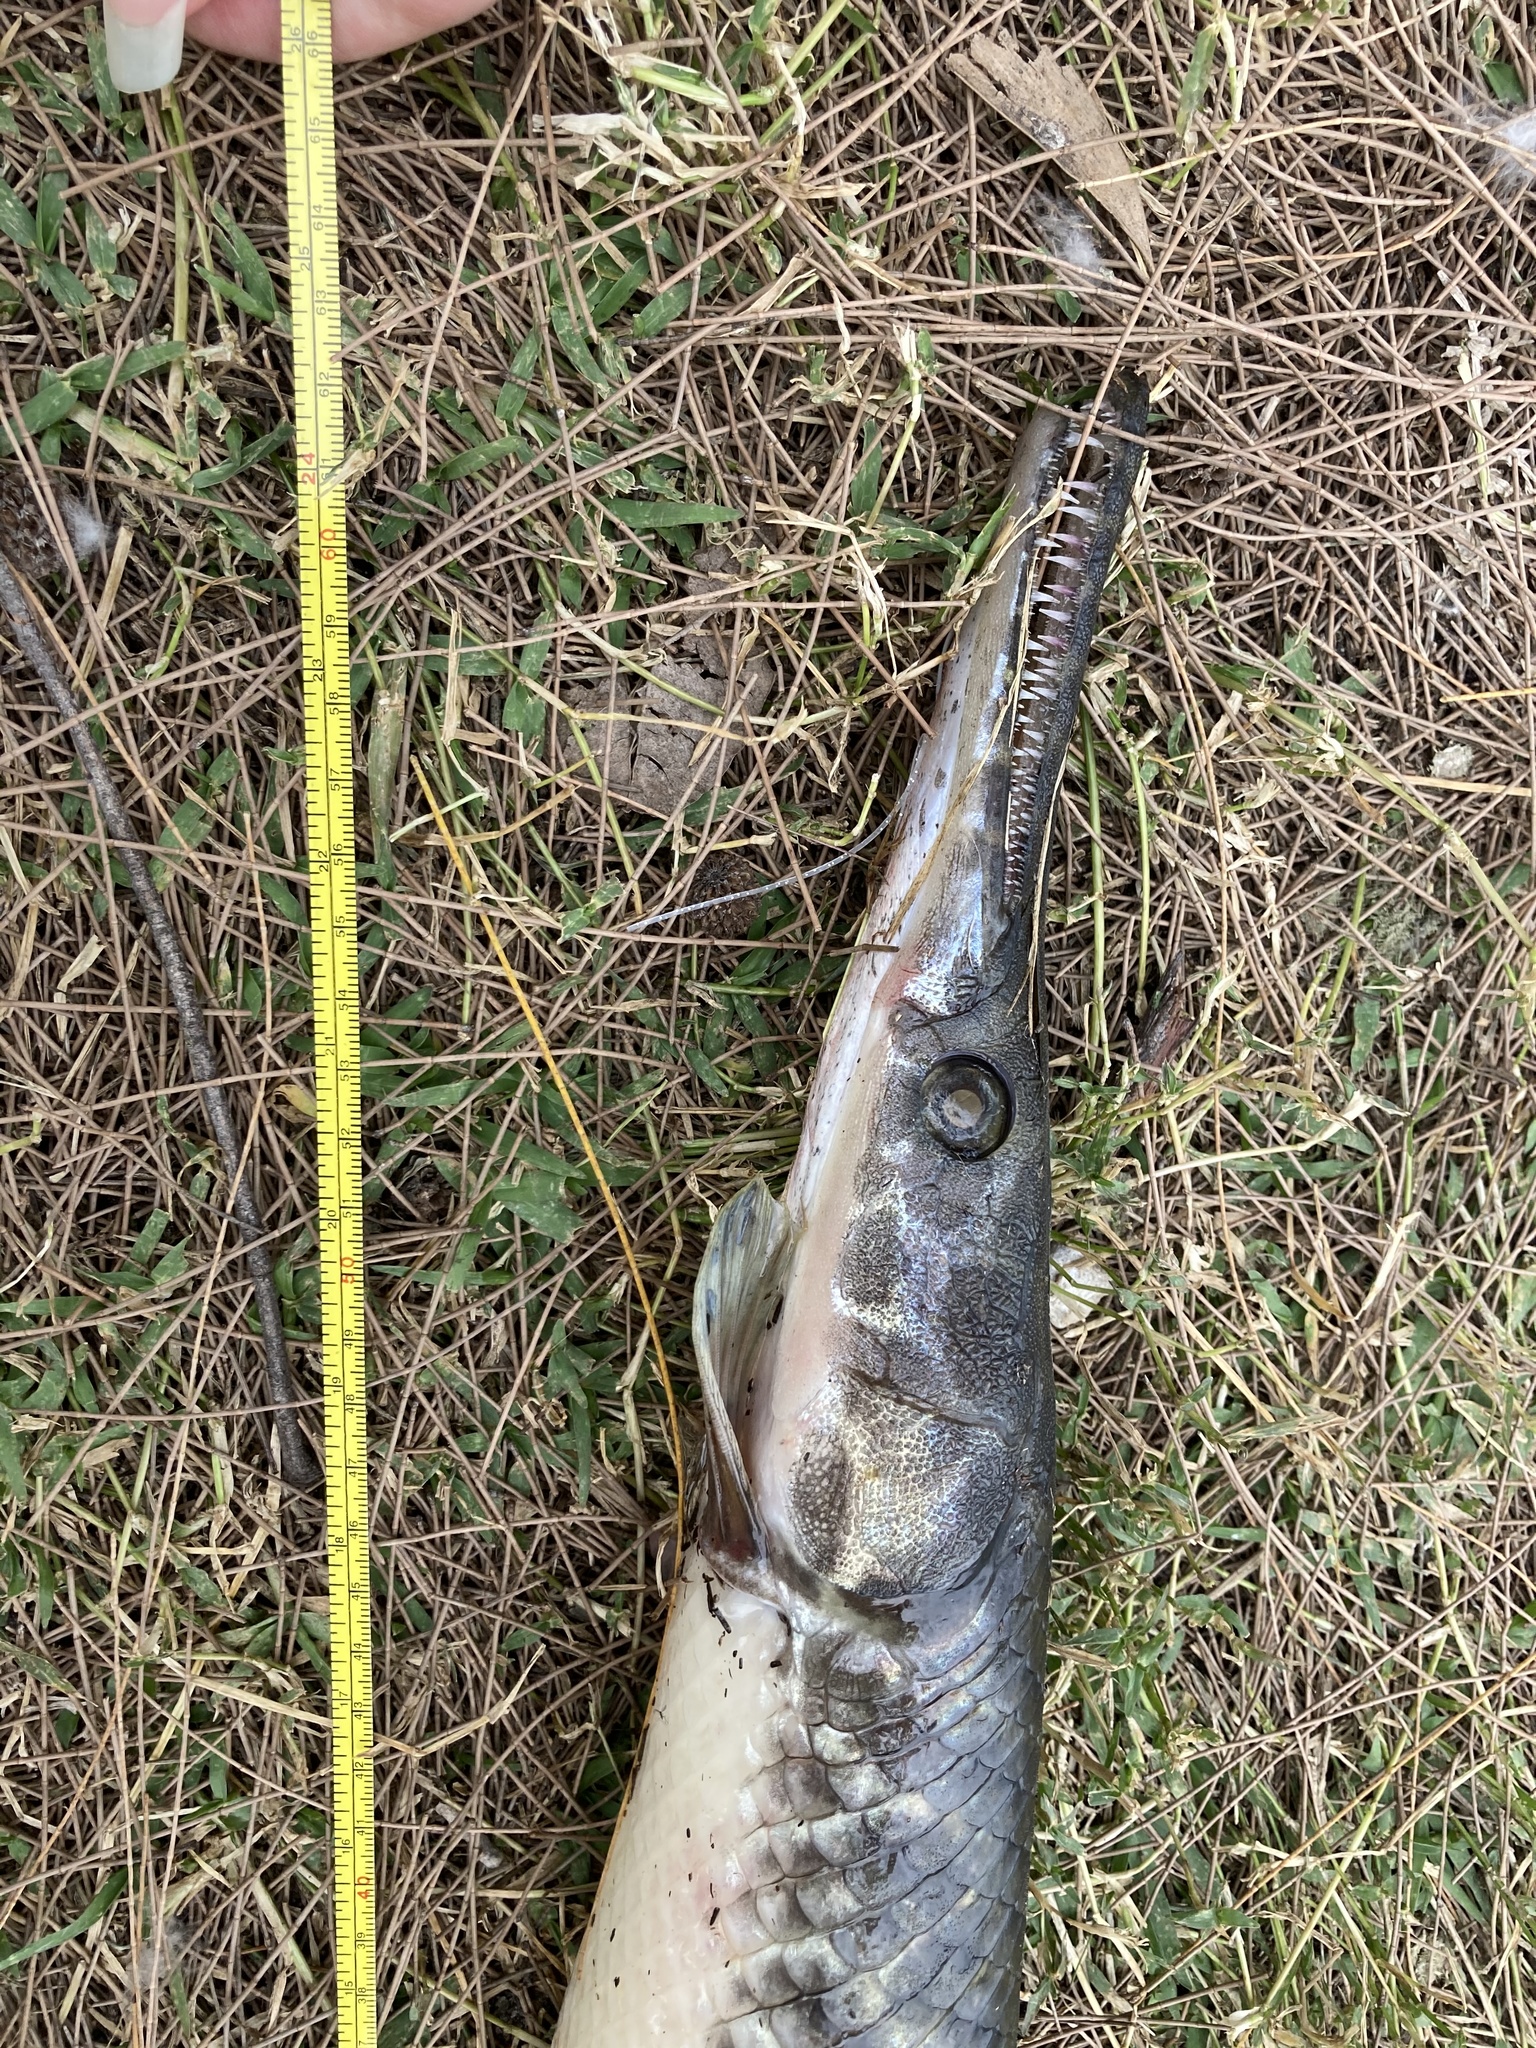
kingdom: Animalia
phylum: Chordata
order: Lepisosteiformes
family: Lepisosteidae
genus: Lepisosteus
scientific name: Lepisosteus platyrhincus
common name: Florida gar
